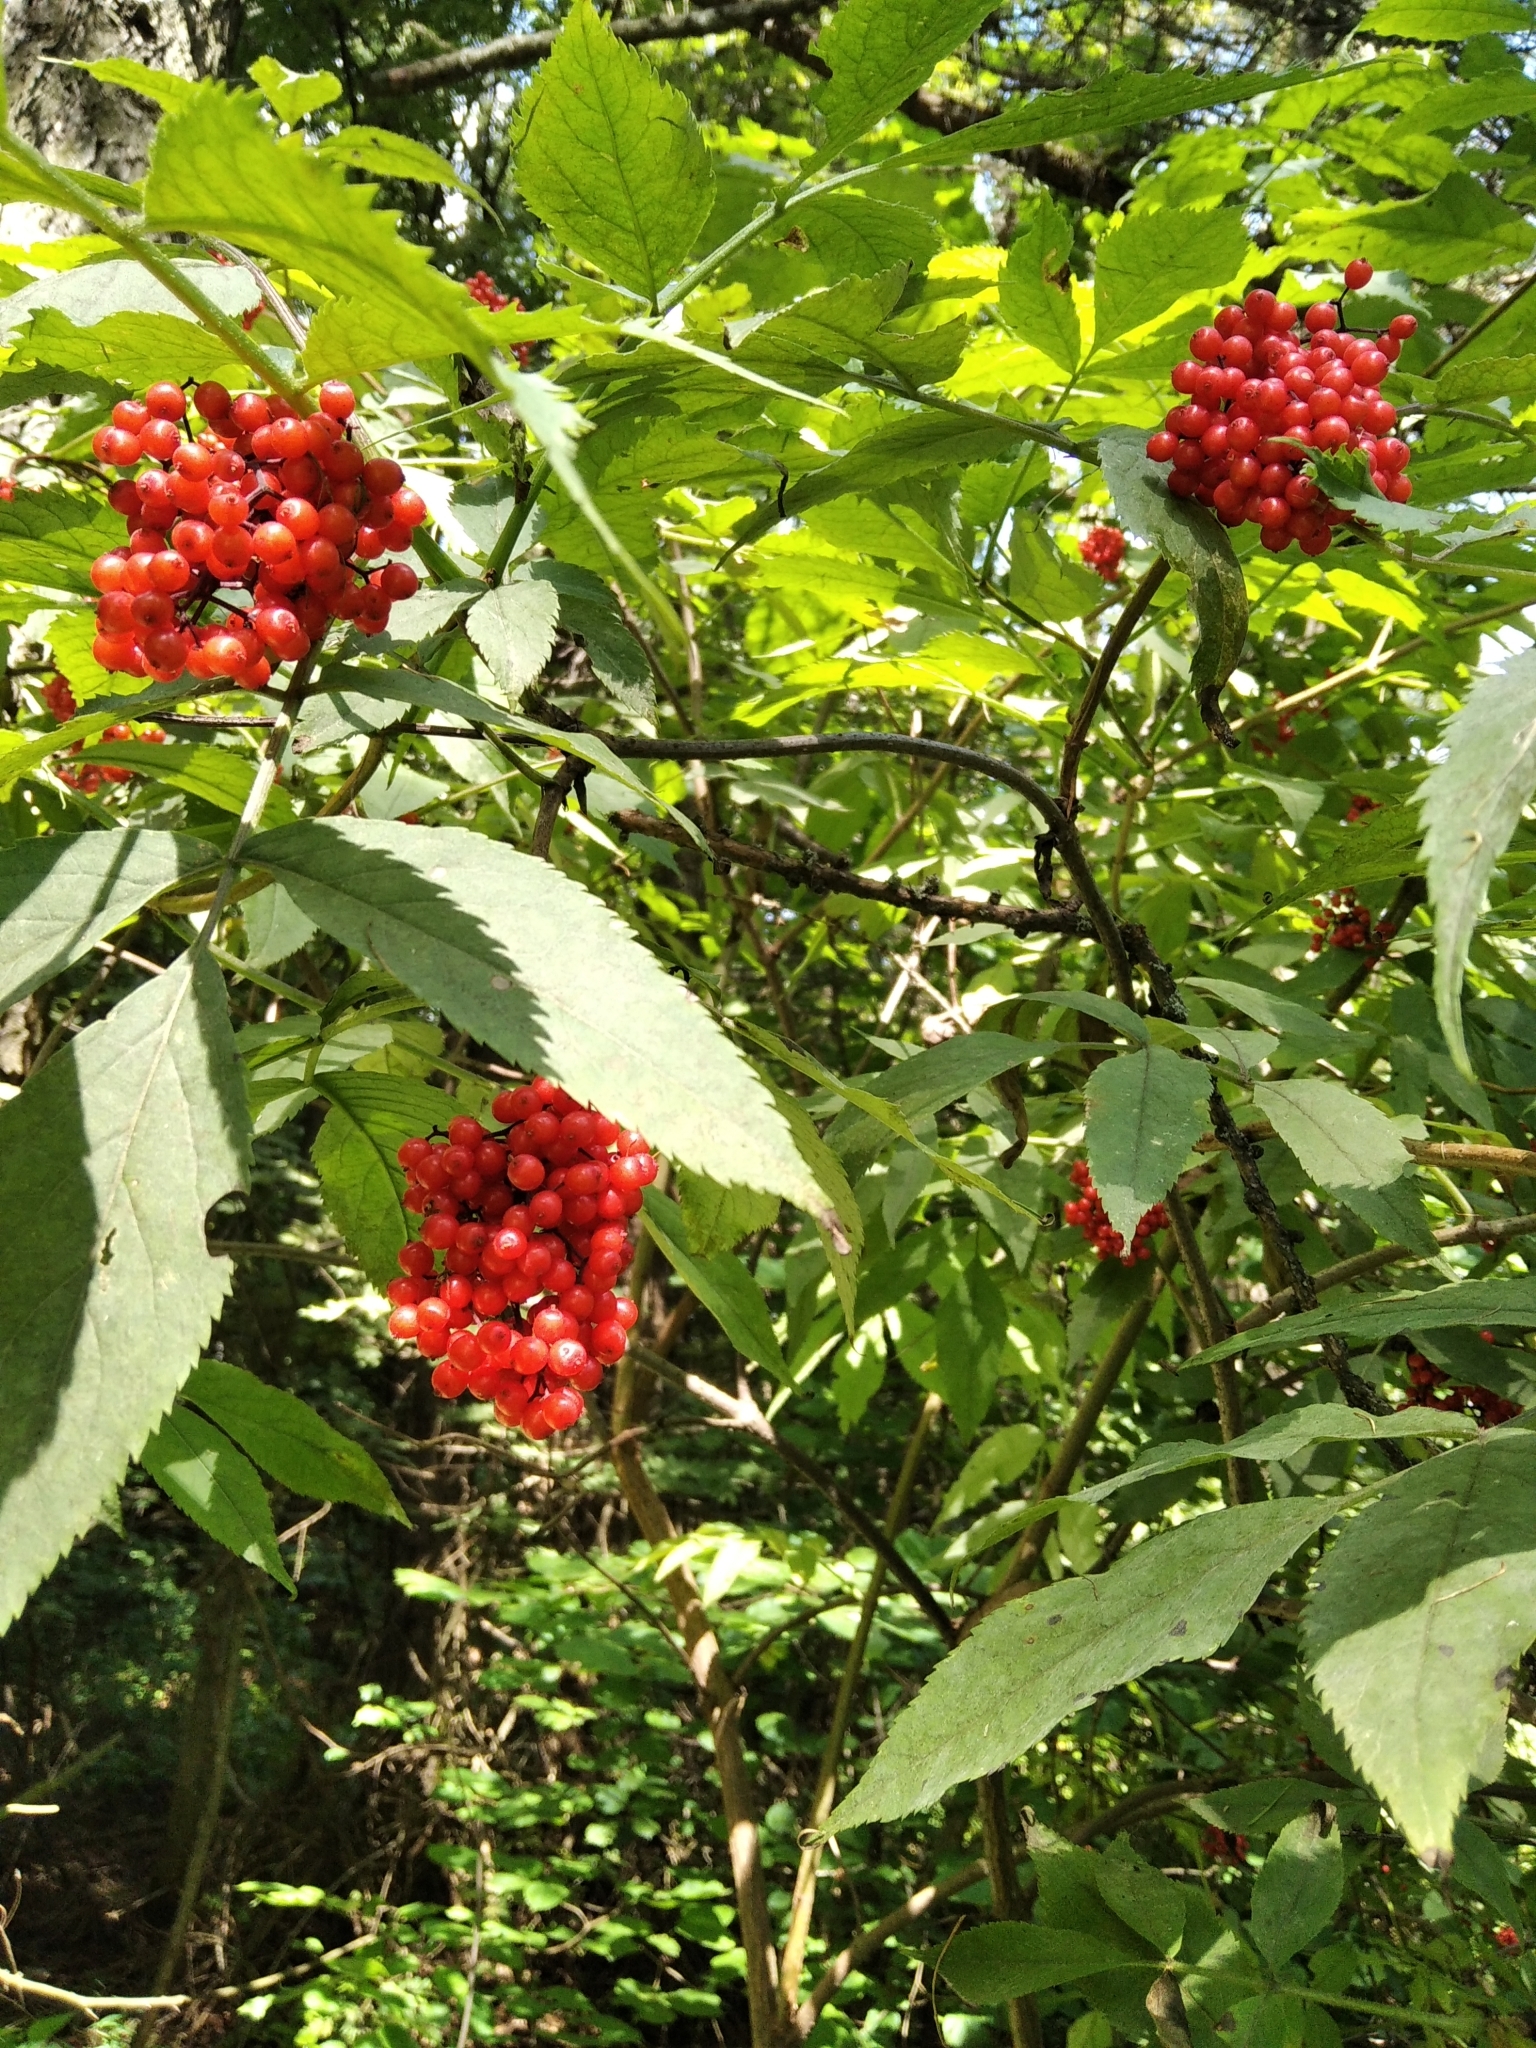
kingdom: Plantae
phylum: Tracheophyta
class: Magnoliopsida
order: Dipsacales
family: Viburnaceae
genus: Sambucus
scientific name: Sambucus racemosa
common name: Red-berried elder
